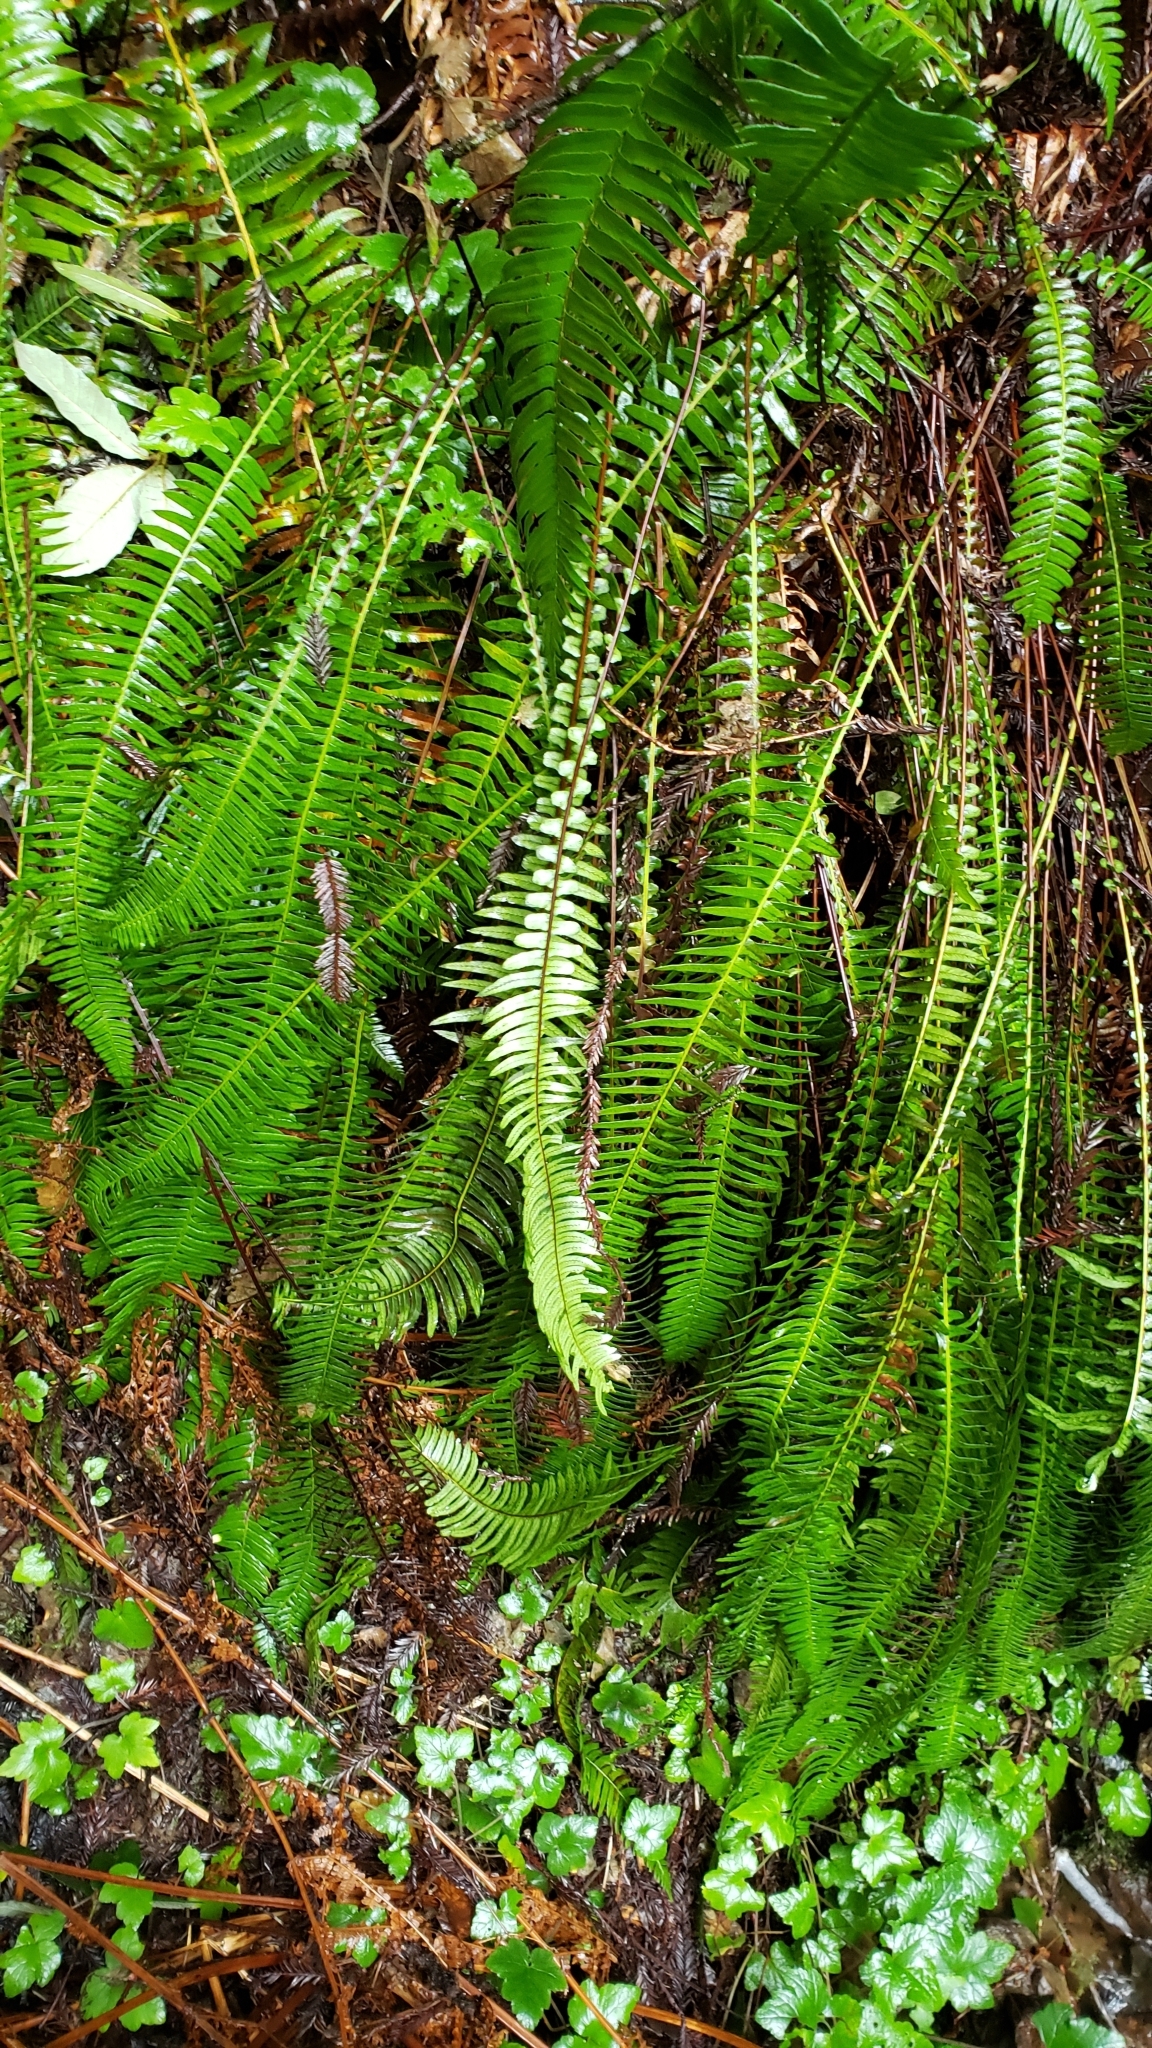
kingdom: Plantae
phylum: Tracheophyta
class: Polypodiopsida
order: Polypodiales
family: Blechnaceae
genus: Struthiopteris
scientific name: Struthiopteris spicant
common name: Deer fern
